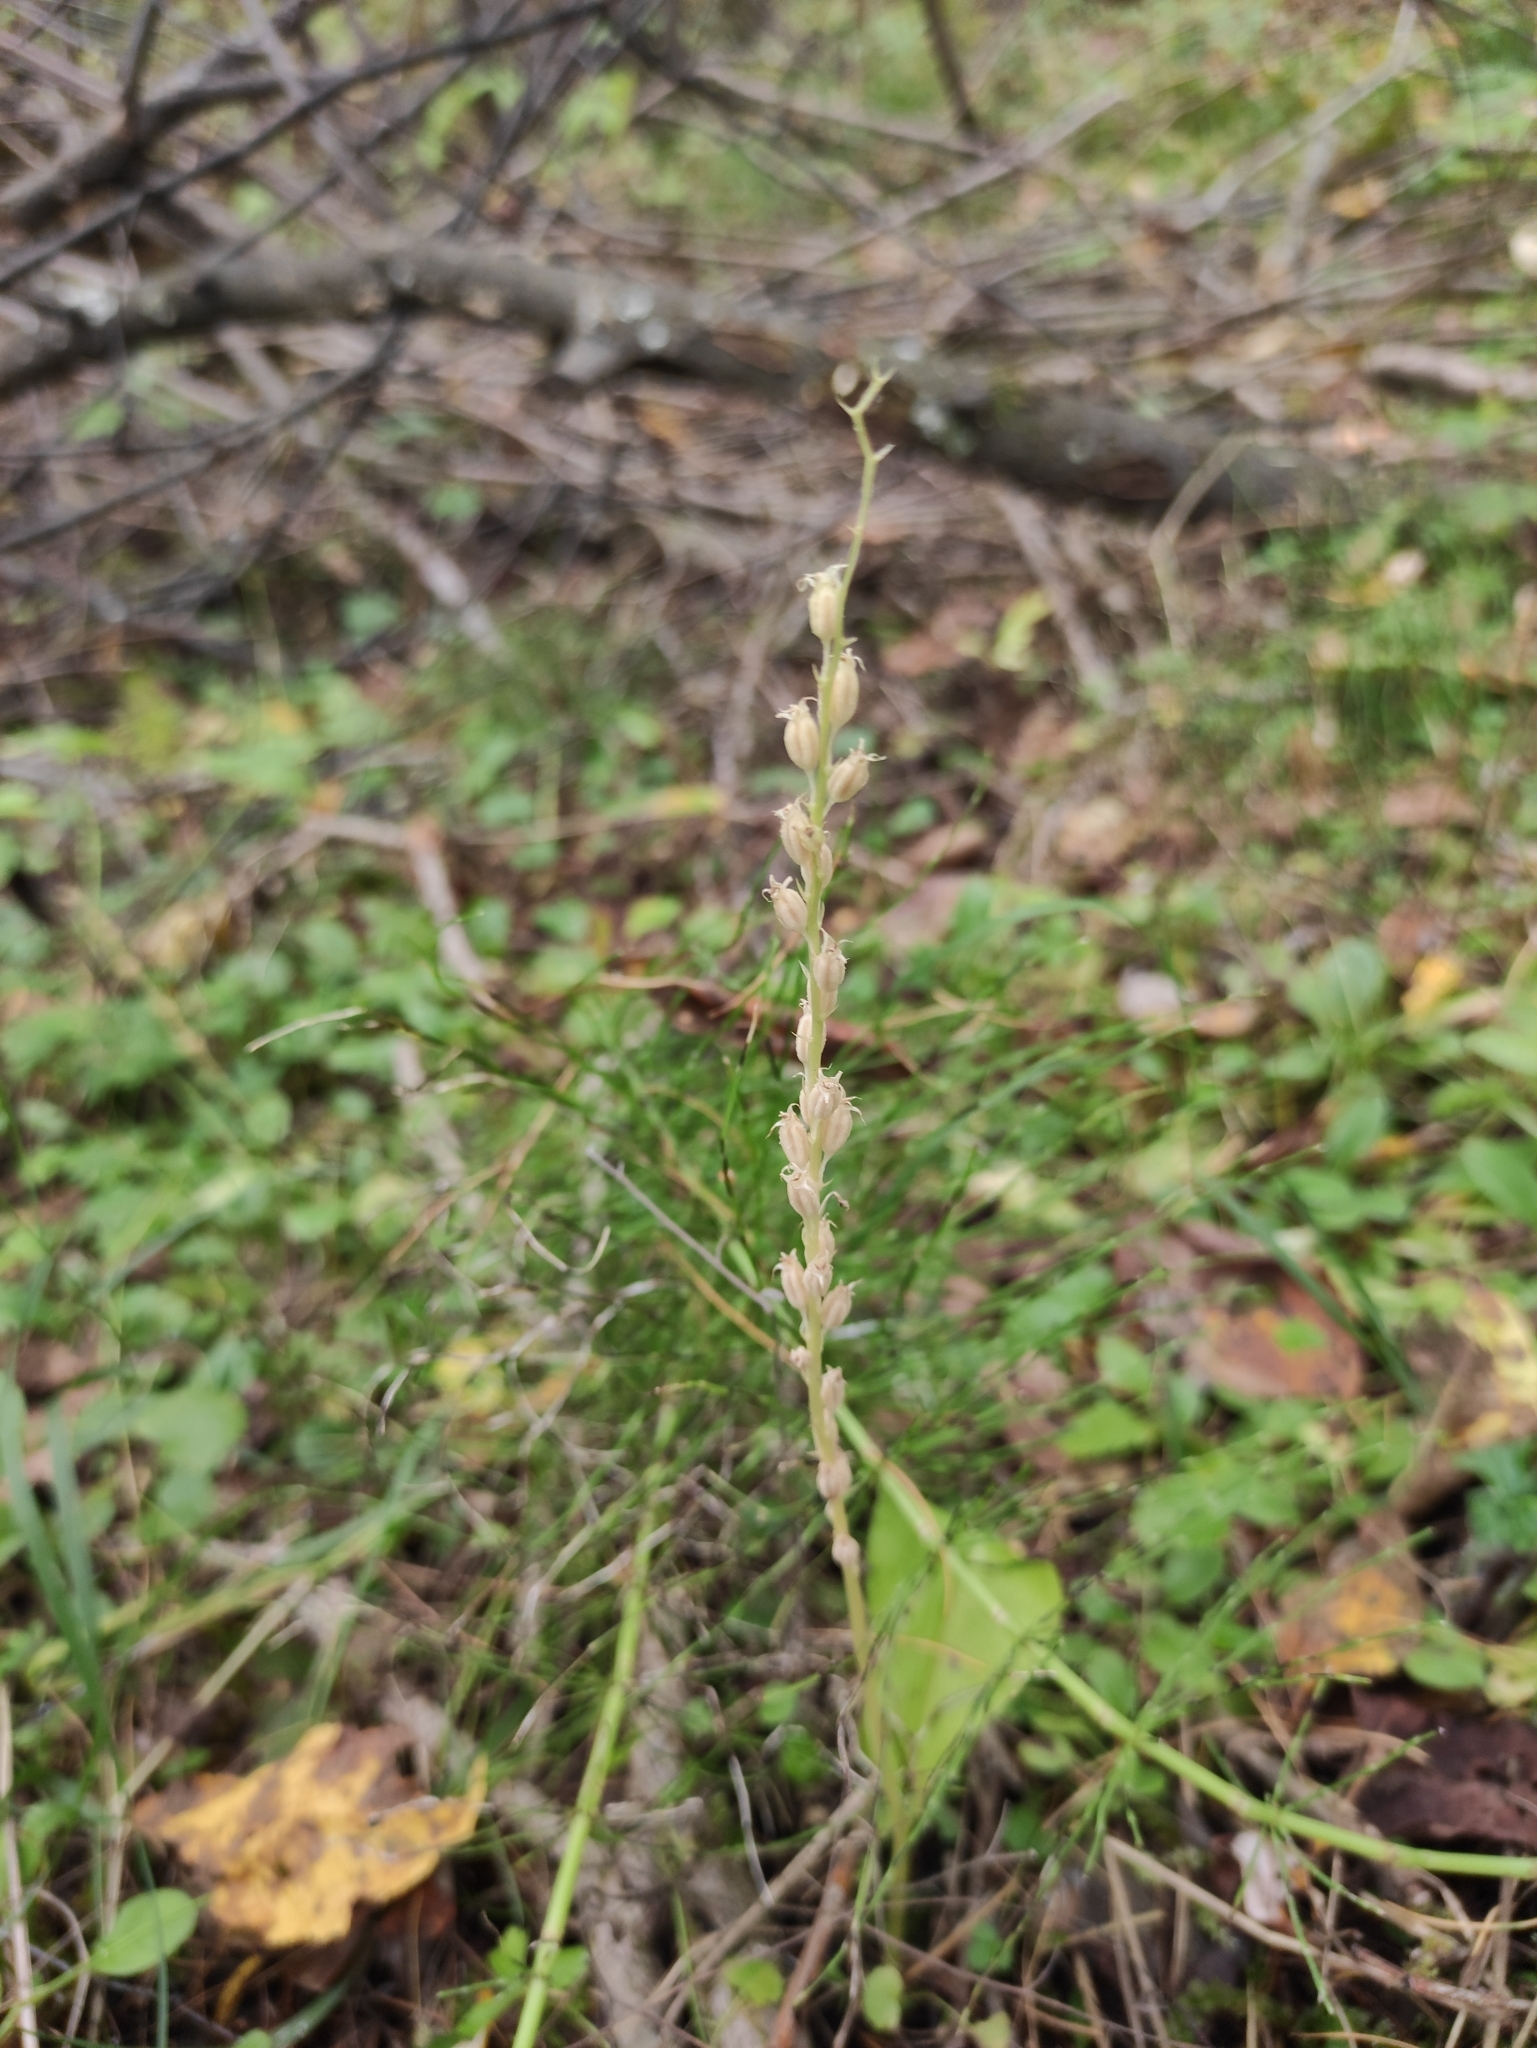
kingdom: Plantae
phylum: Tracheophyta
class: Liliopsida
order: Asparagales
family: Orchidaceae
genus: Malaxis
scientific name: Malaxis monophyllos
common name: White adder's-mouth
